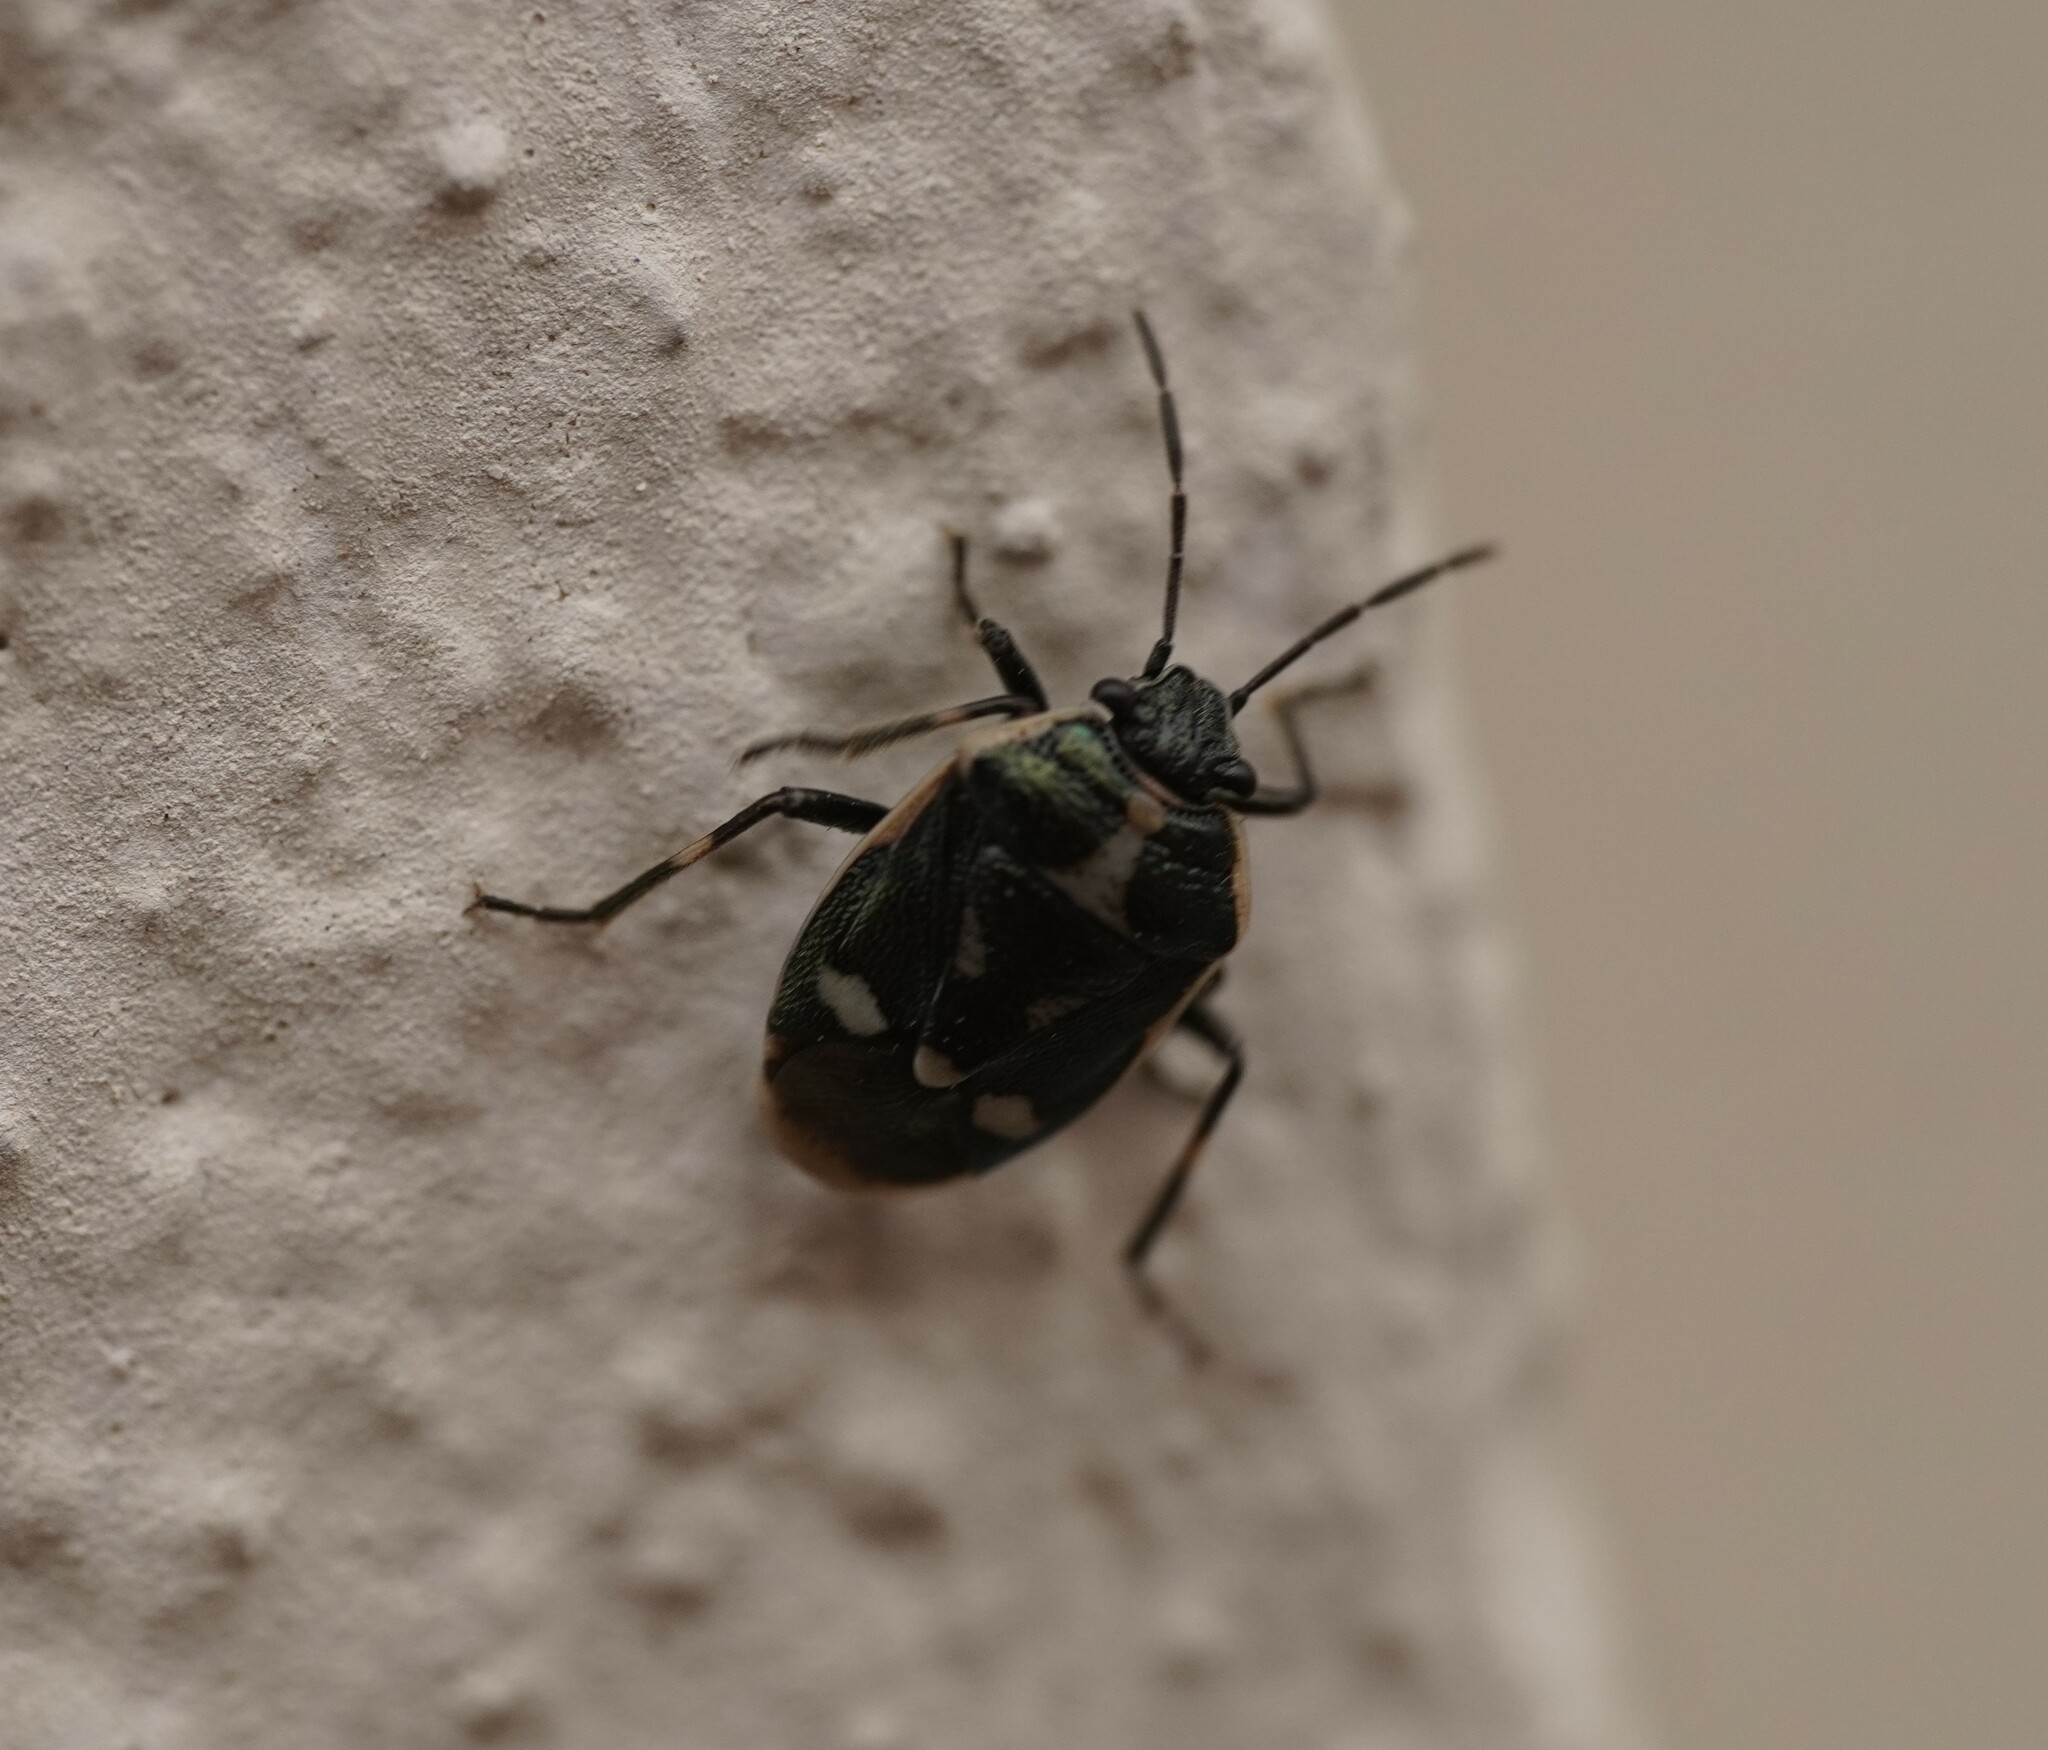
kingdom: Animalia
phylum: Arthropoda
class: Insecta
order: Hemiptera
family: Pentatomidae
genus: Eurydema
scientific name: Eurydema oleracea
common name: Cabbage bug
